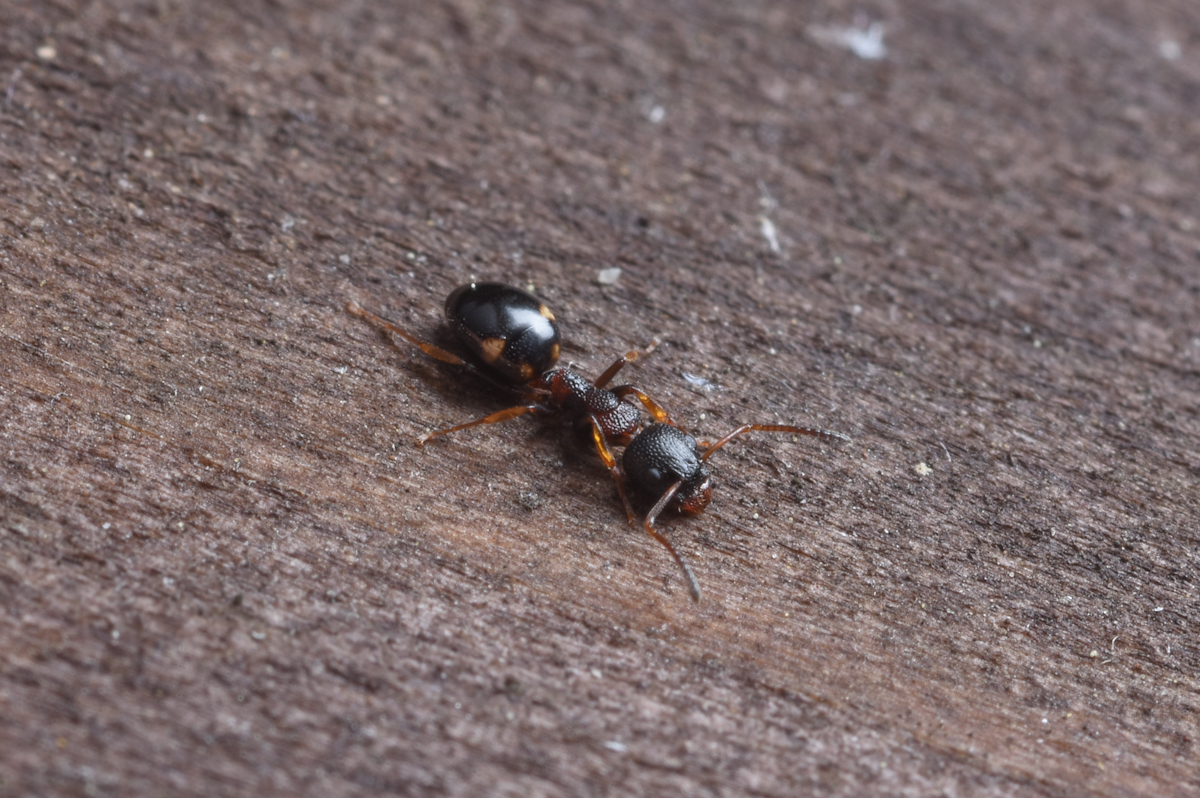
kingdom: Animalia
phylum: Arthropoda
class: Insecta
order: Hymenoptera
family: Formicidae
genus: Dolichoderus
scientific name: Dolichoderus sibiricus
